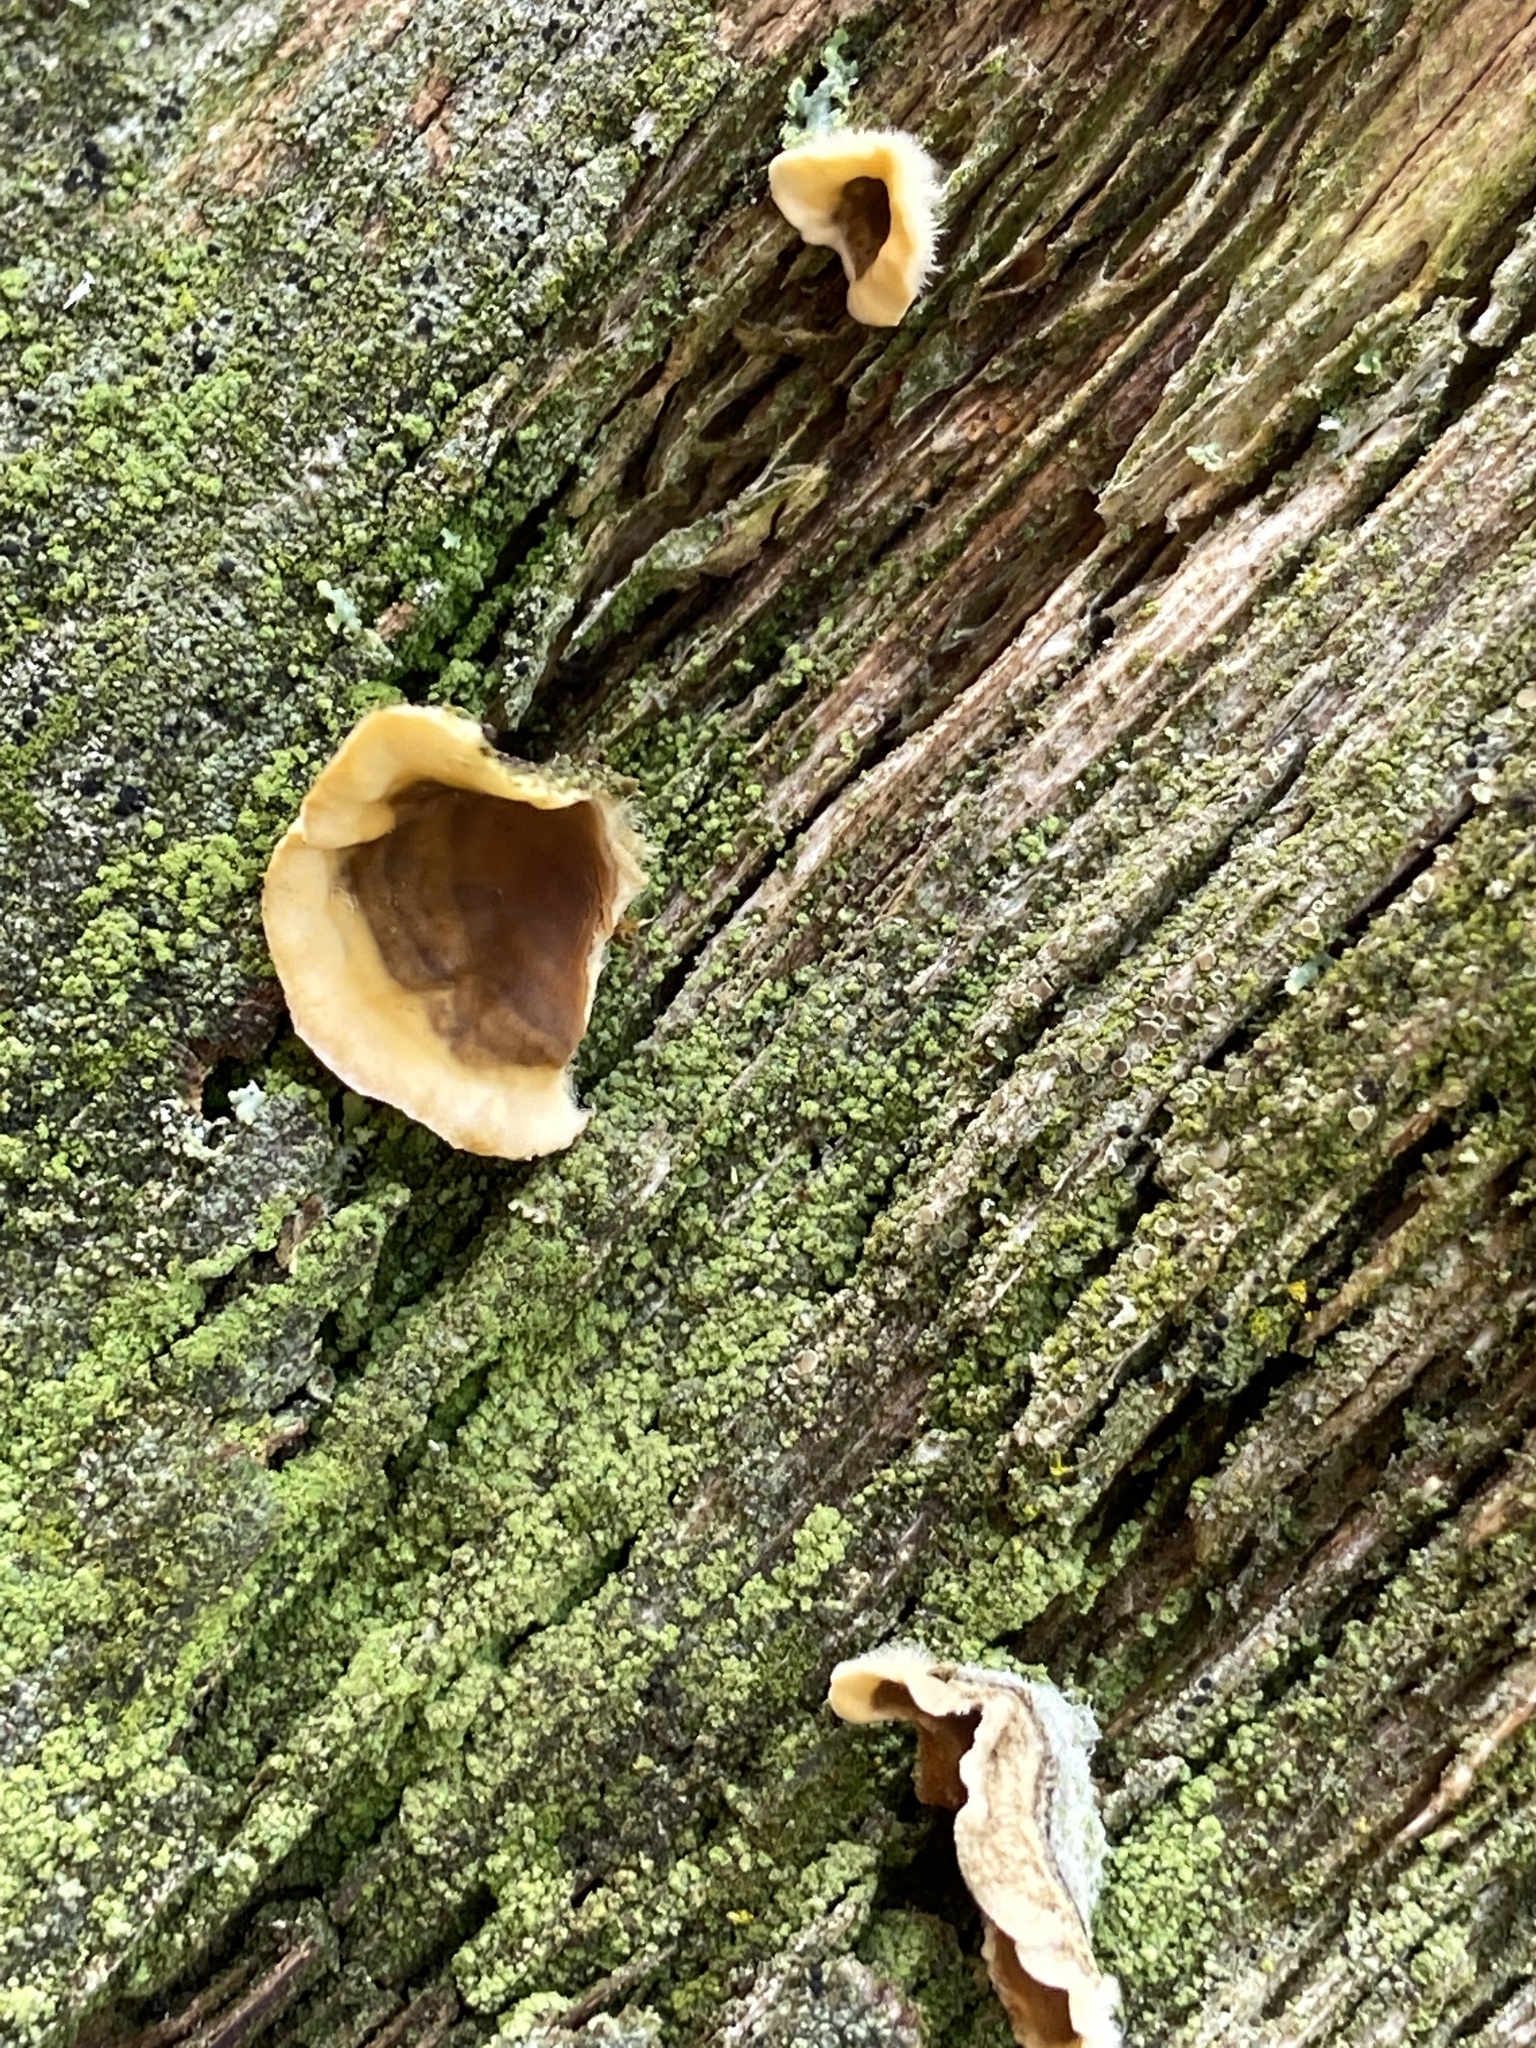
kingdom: Fungi
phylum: Basidiomycota
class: Agaricomycetes
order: Russulales
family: Stereaceae
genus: Stereum
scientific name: Stereum hirsutum
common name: Hairy curtain crust
